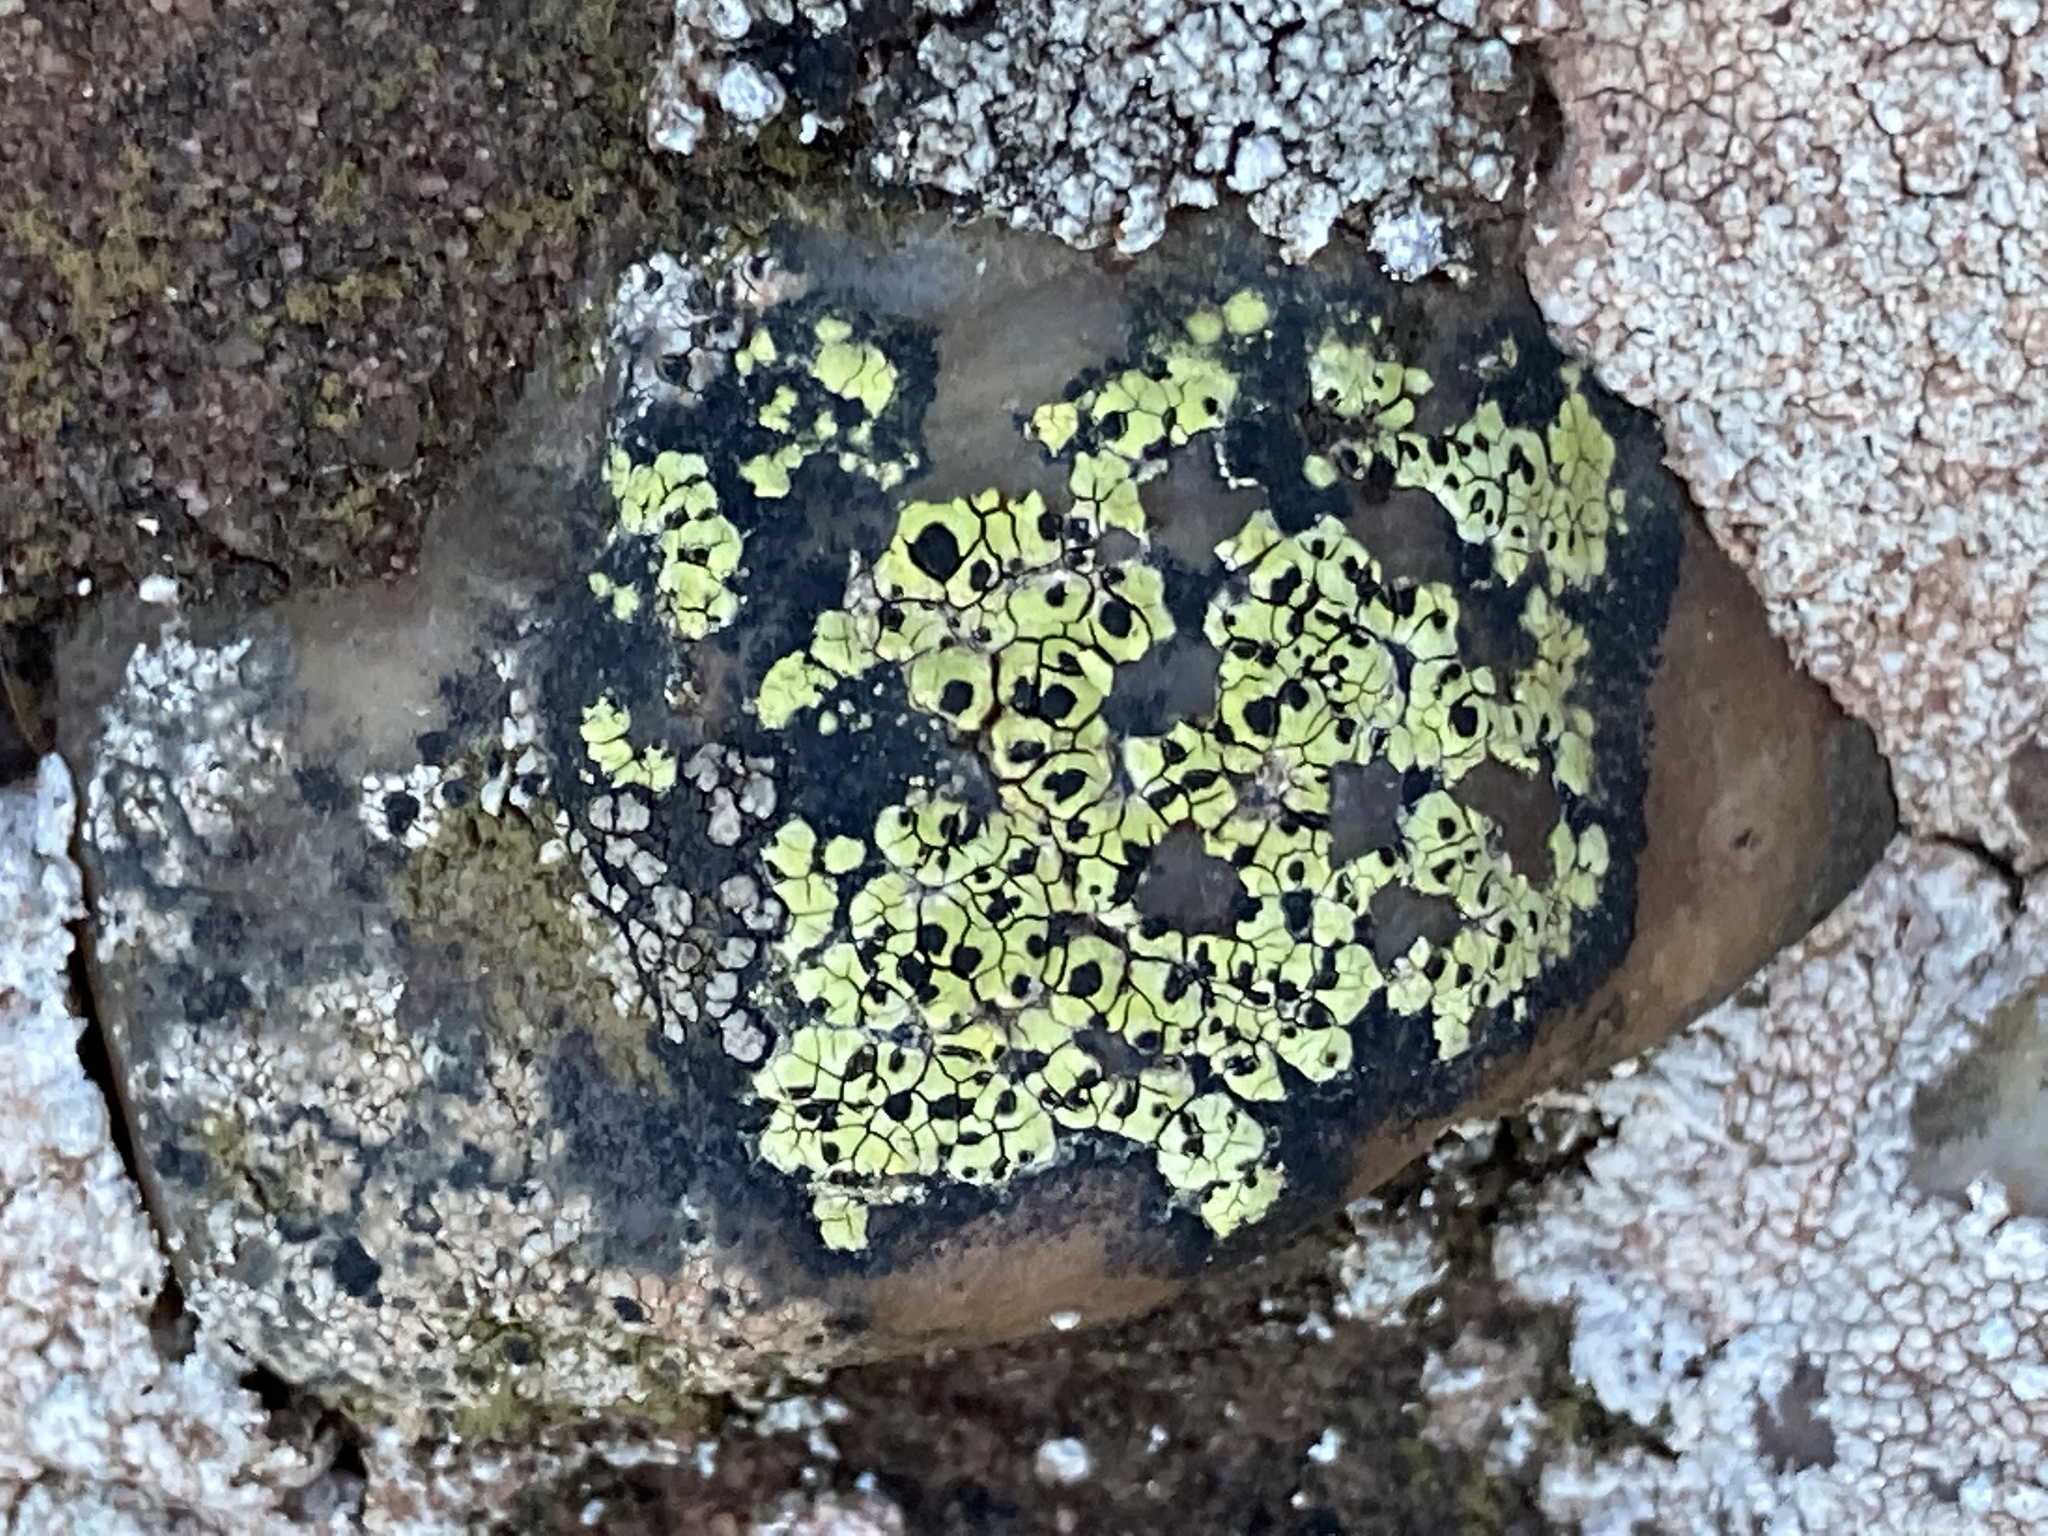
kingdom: Fungi
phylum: Ascomycota
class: Lecanoromycetes
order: Rhizocarpales
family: Rhizocarpaceae
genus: Rhizocarpon
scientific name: Rhizocarpon geographicum
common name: Yellow map lichen
